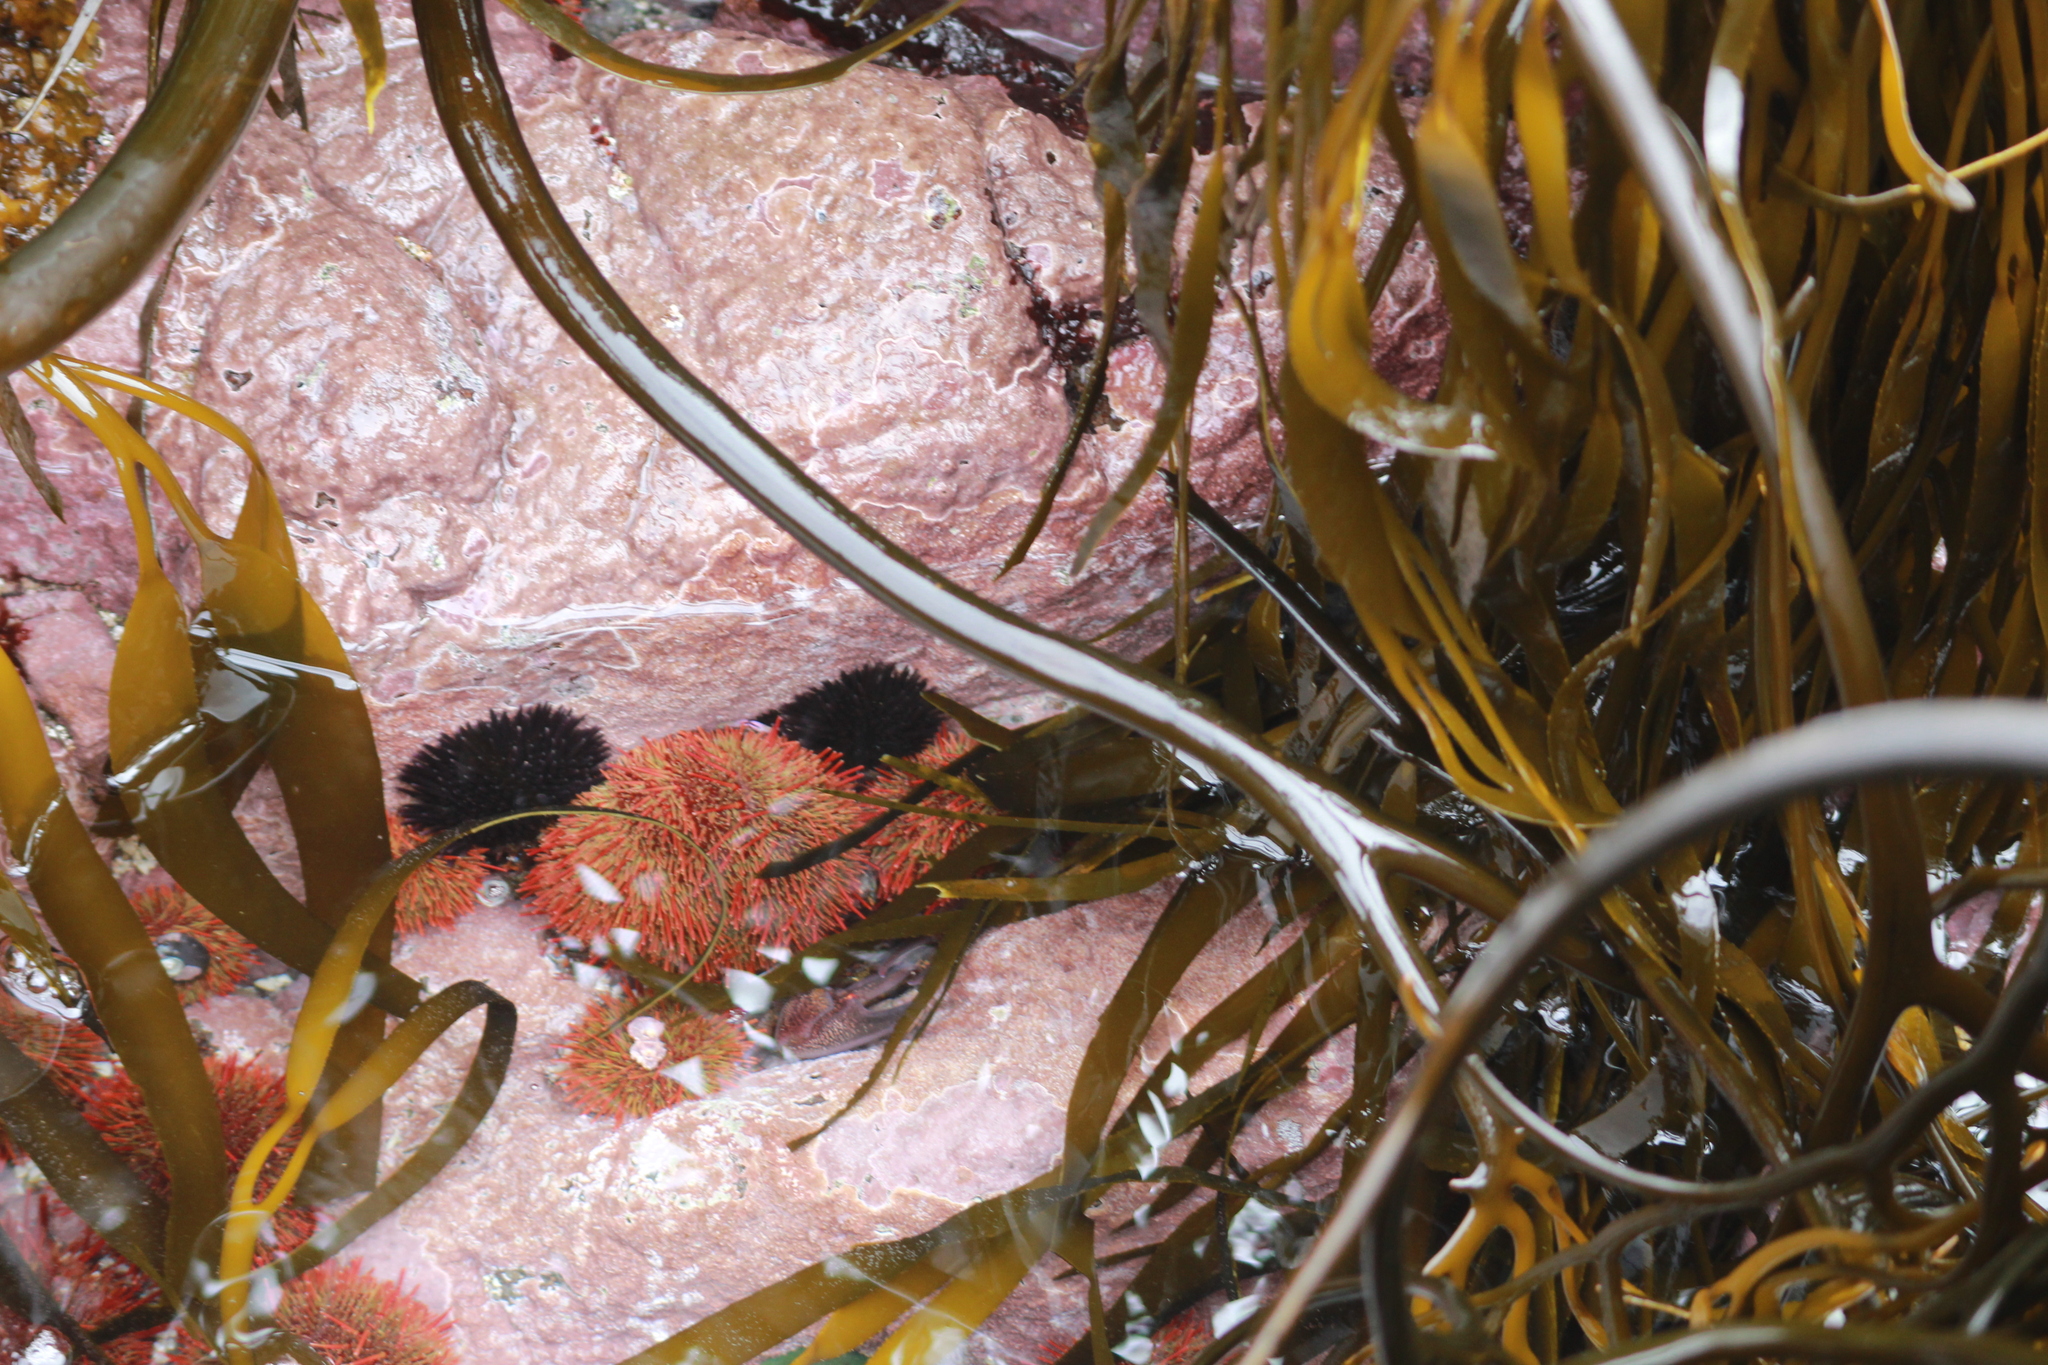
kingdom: Animalia
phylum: Echinodermata
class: Echinoidea
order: Camarodonta
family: Parechinidae
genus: Loxechinus
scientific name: Loxechinus albus
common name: Chilean sea urchin
